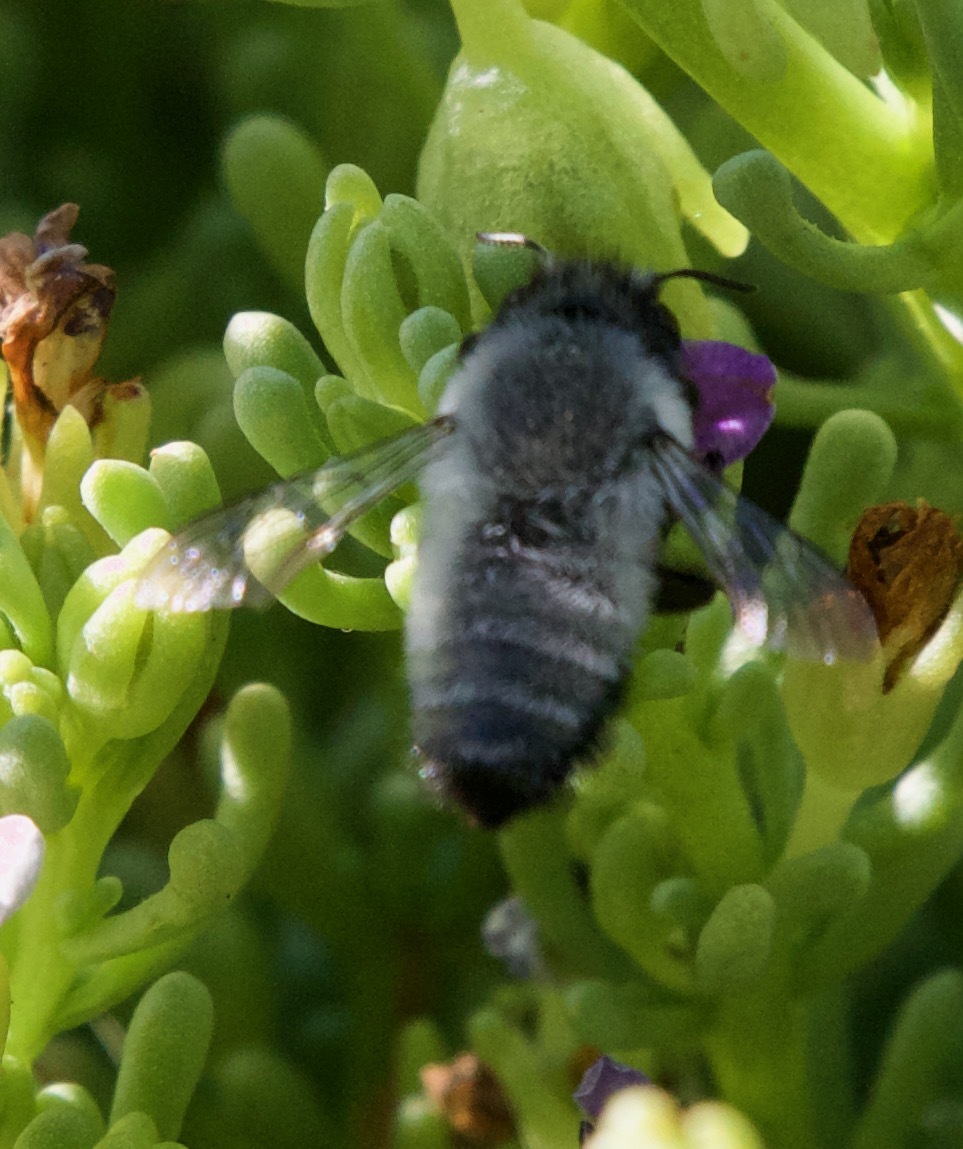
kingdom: Animalia
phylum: Arthropoda
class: Insecta
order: Hymenoptera
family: Megachilidae
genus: Megachile
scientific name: Megachile saulcyi
